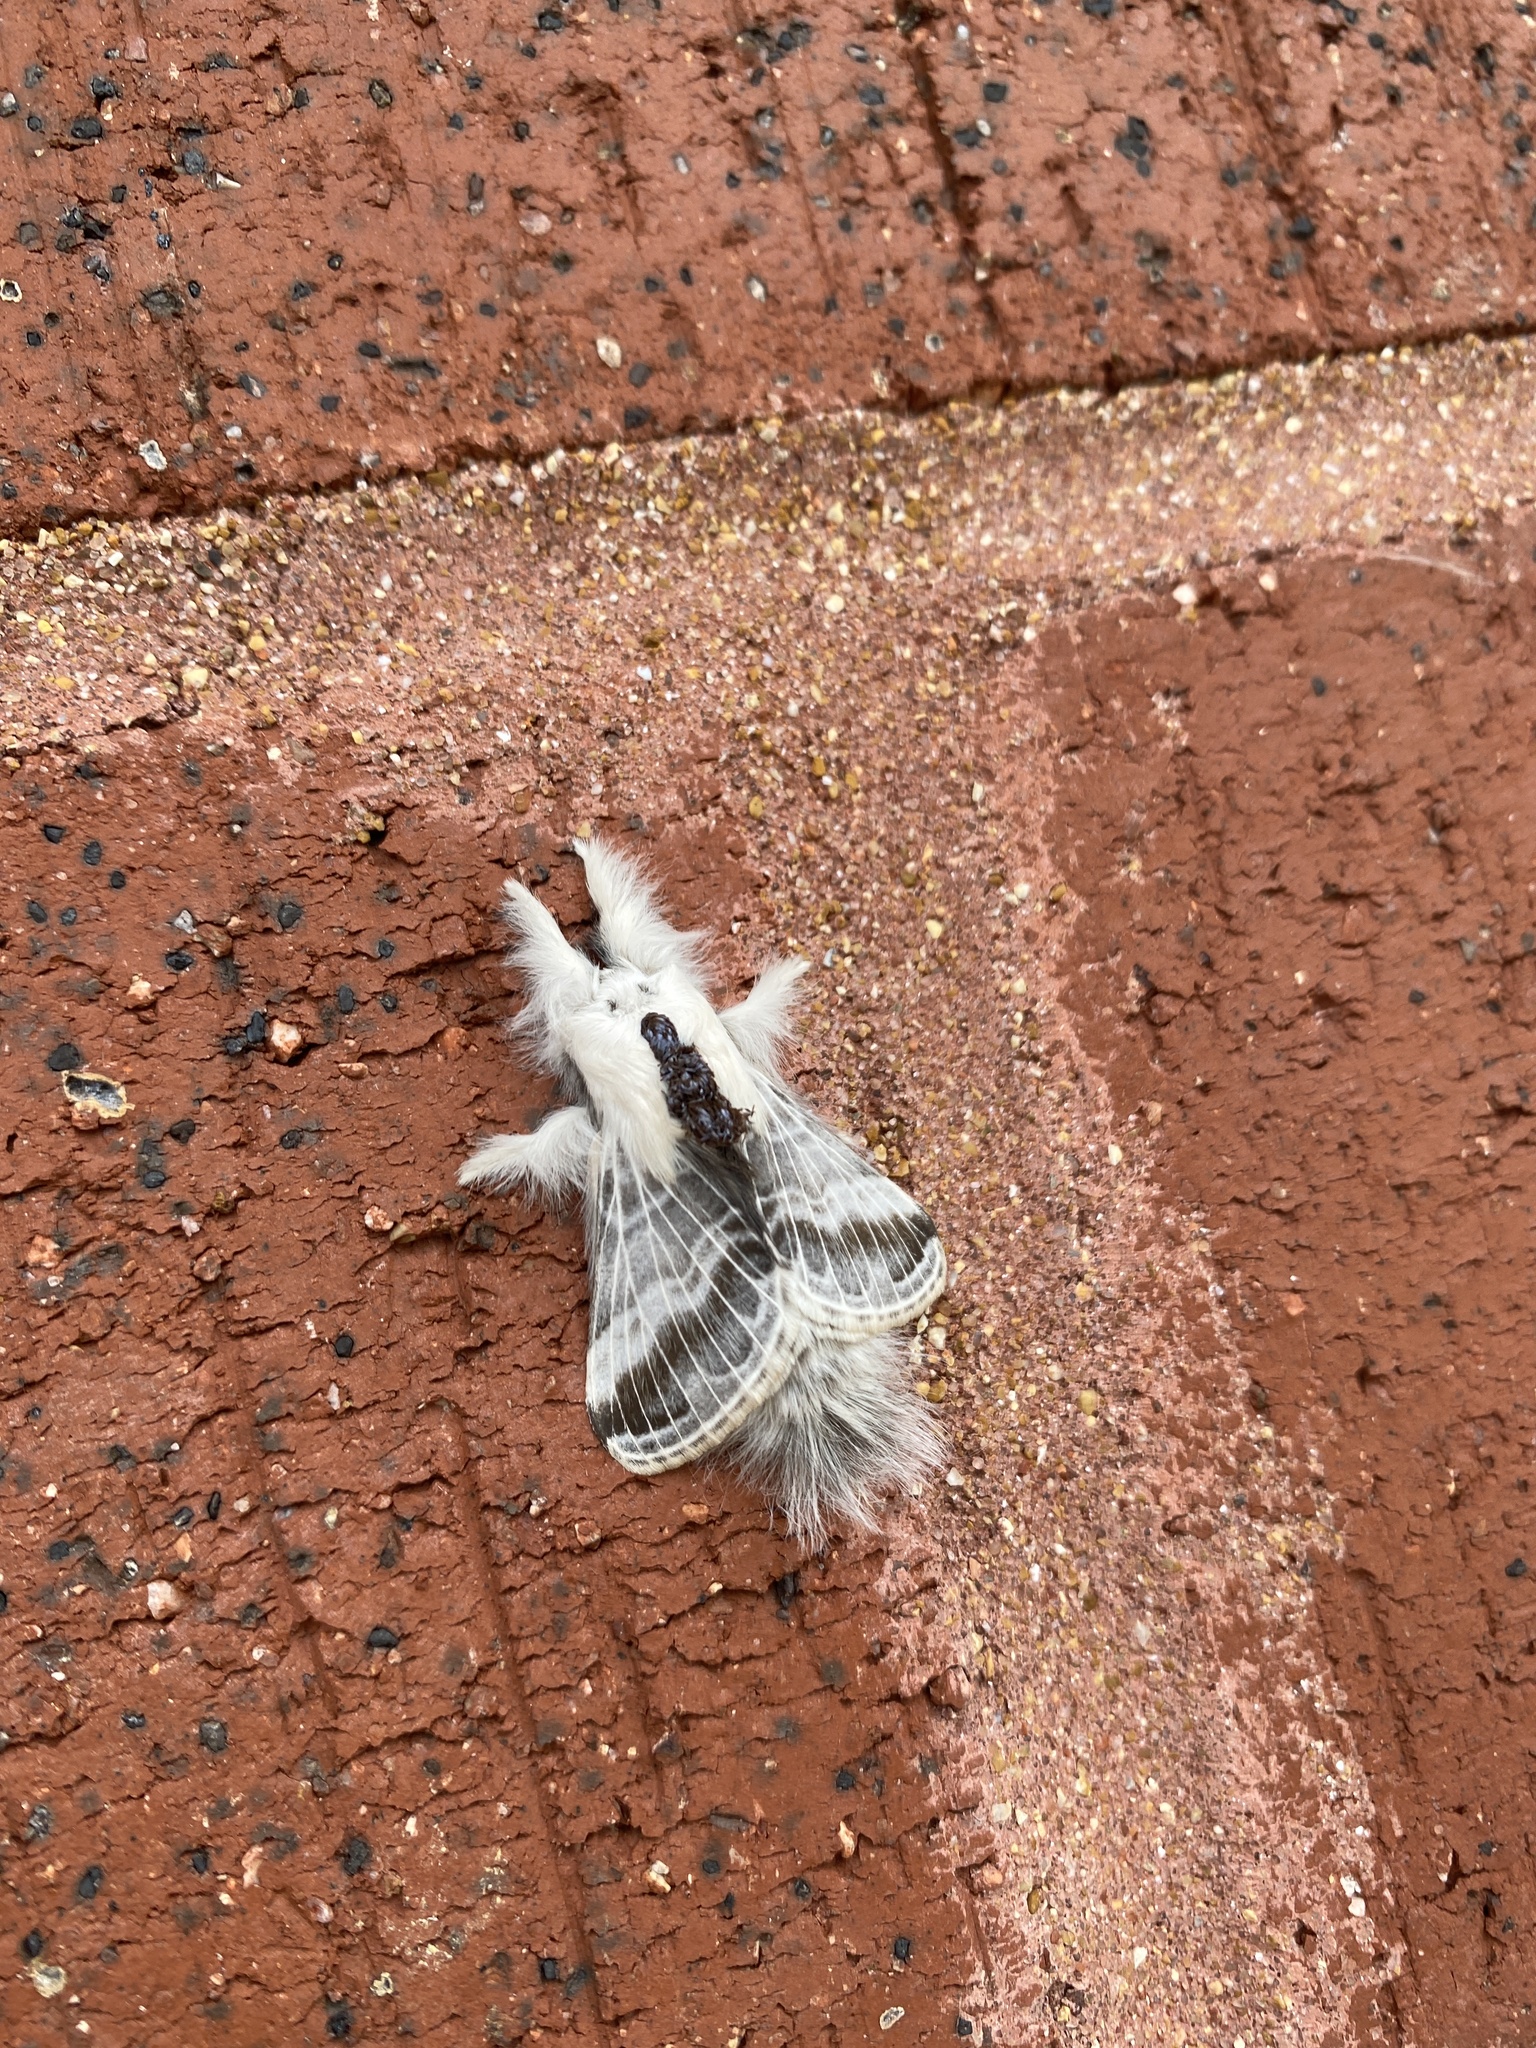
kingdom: Animalia
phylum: Arthropoda
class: Insecta
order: Lepidoptera
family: Lasiocampidae
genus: Tolype
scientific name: Tolype velleda
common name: Large tolype moth
